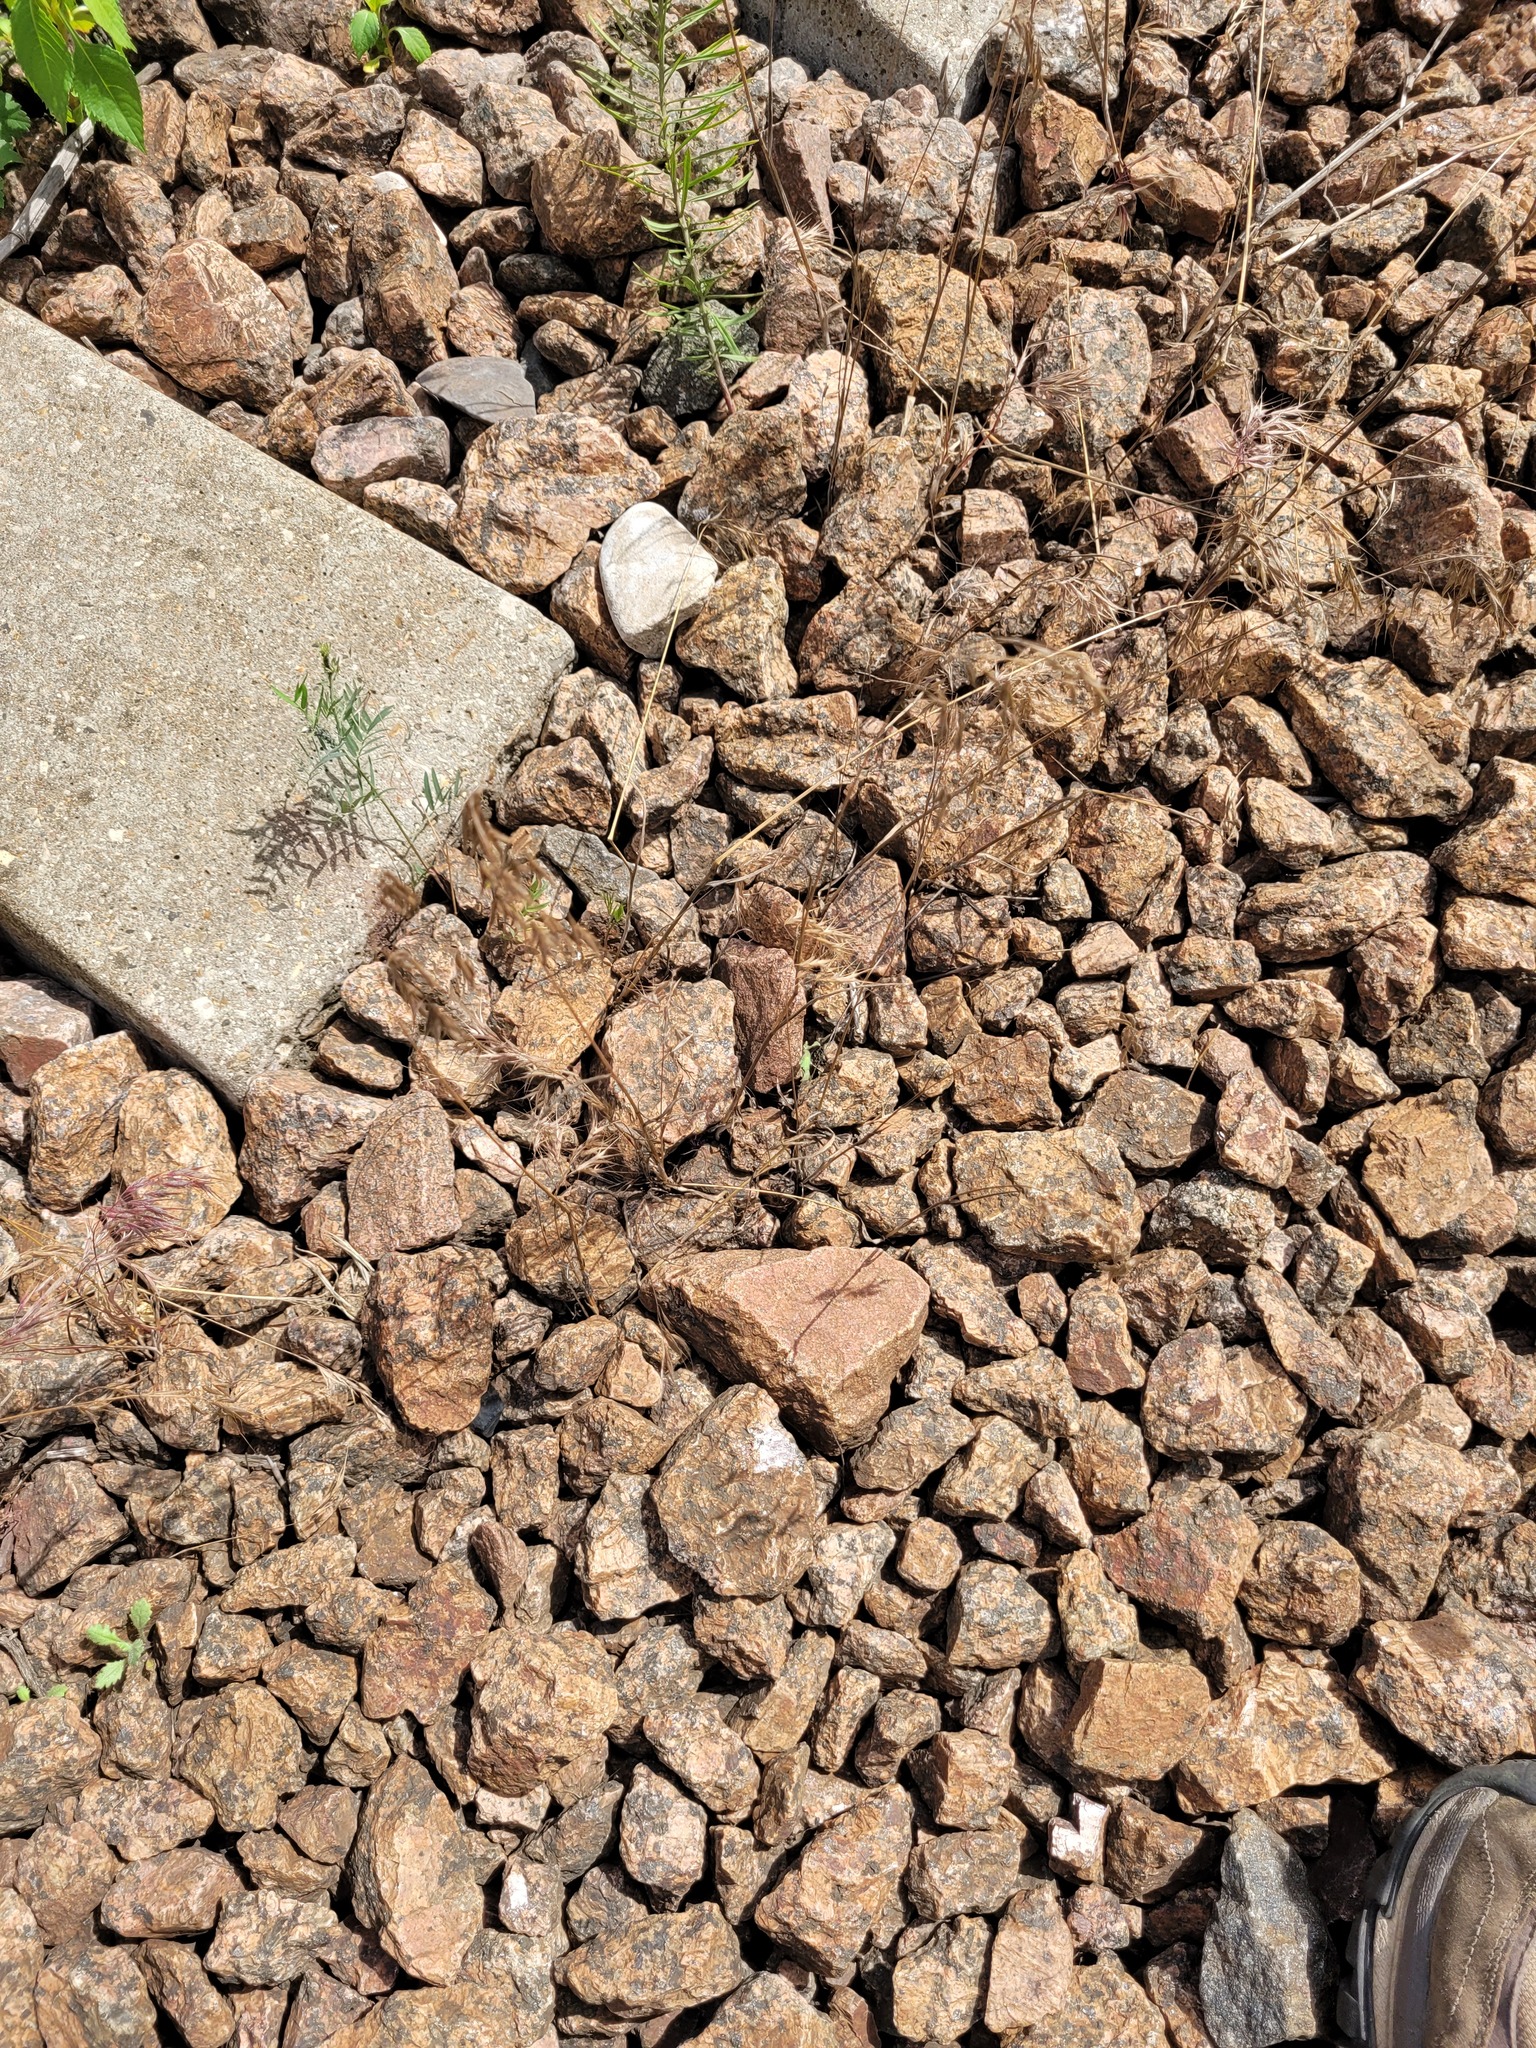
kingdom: Plantae
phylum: Tracheophyta
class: Liliopsida
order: Poales
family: Poaceae
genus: Bromus
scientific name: Bromus tectorum
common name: Cheatgrass
